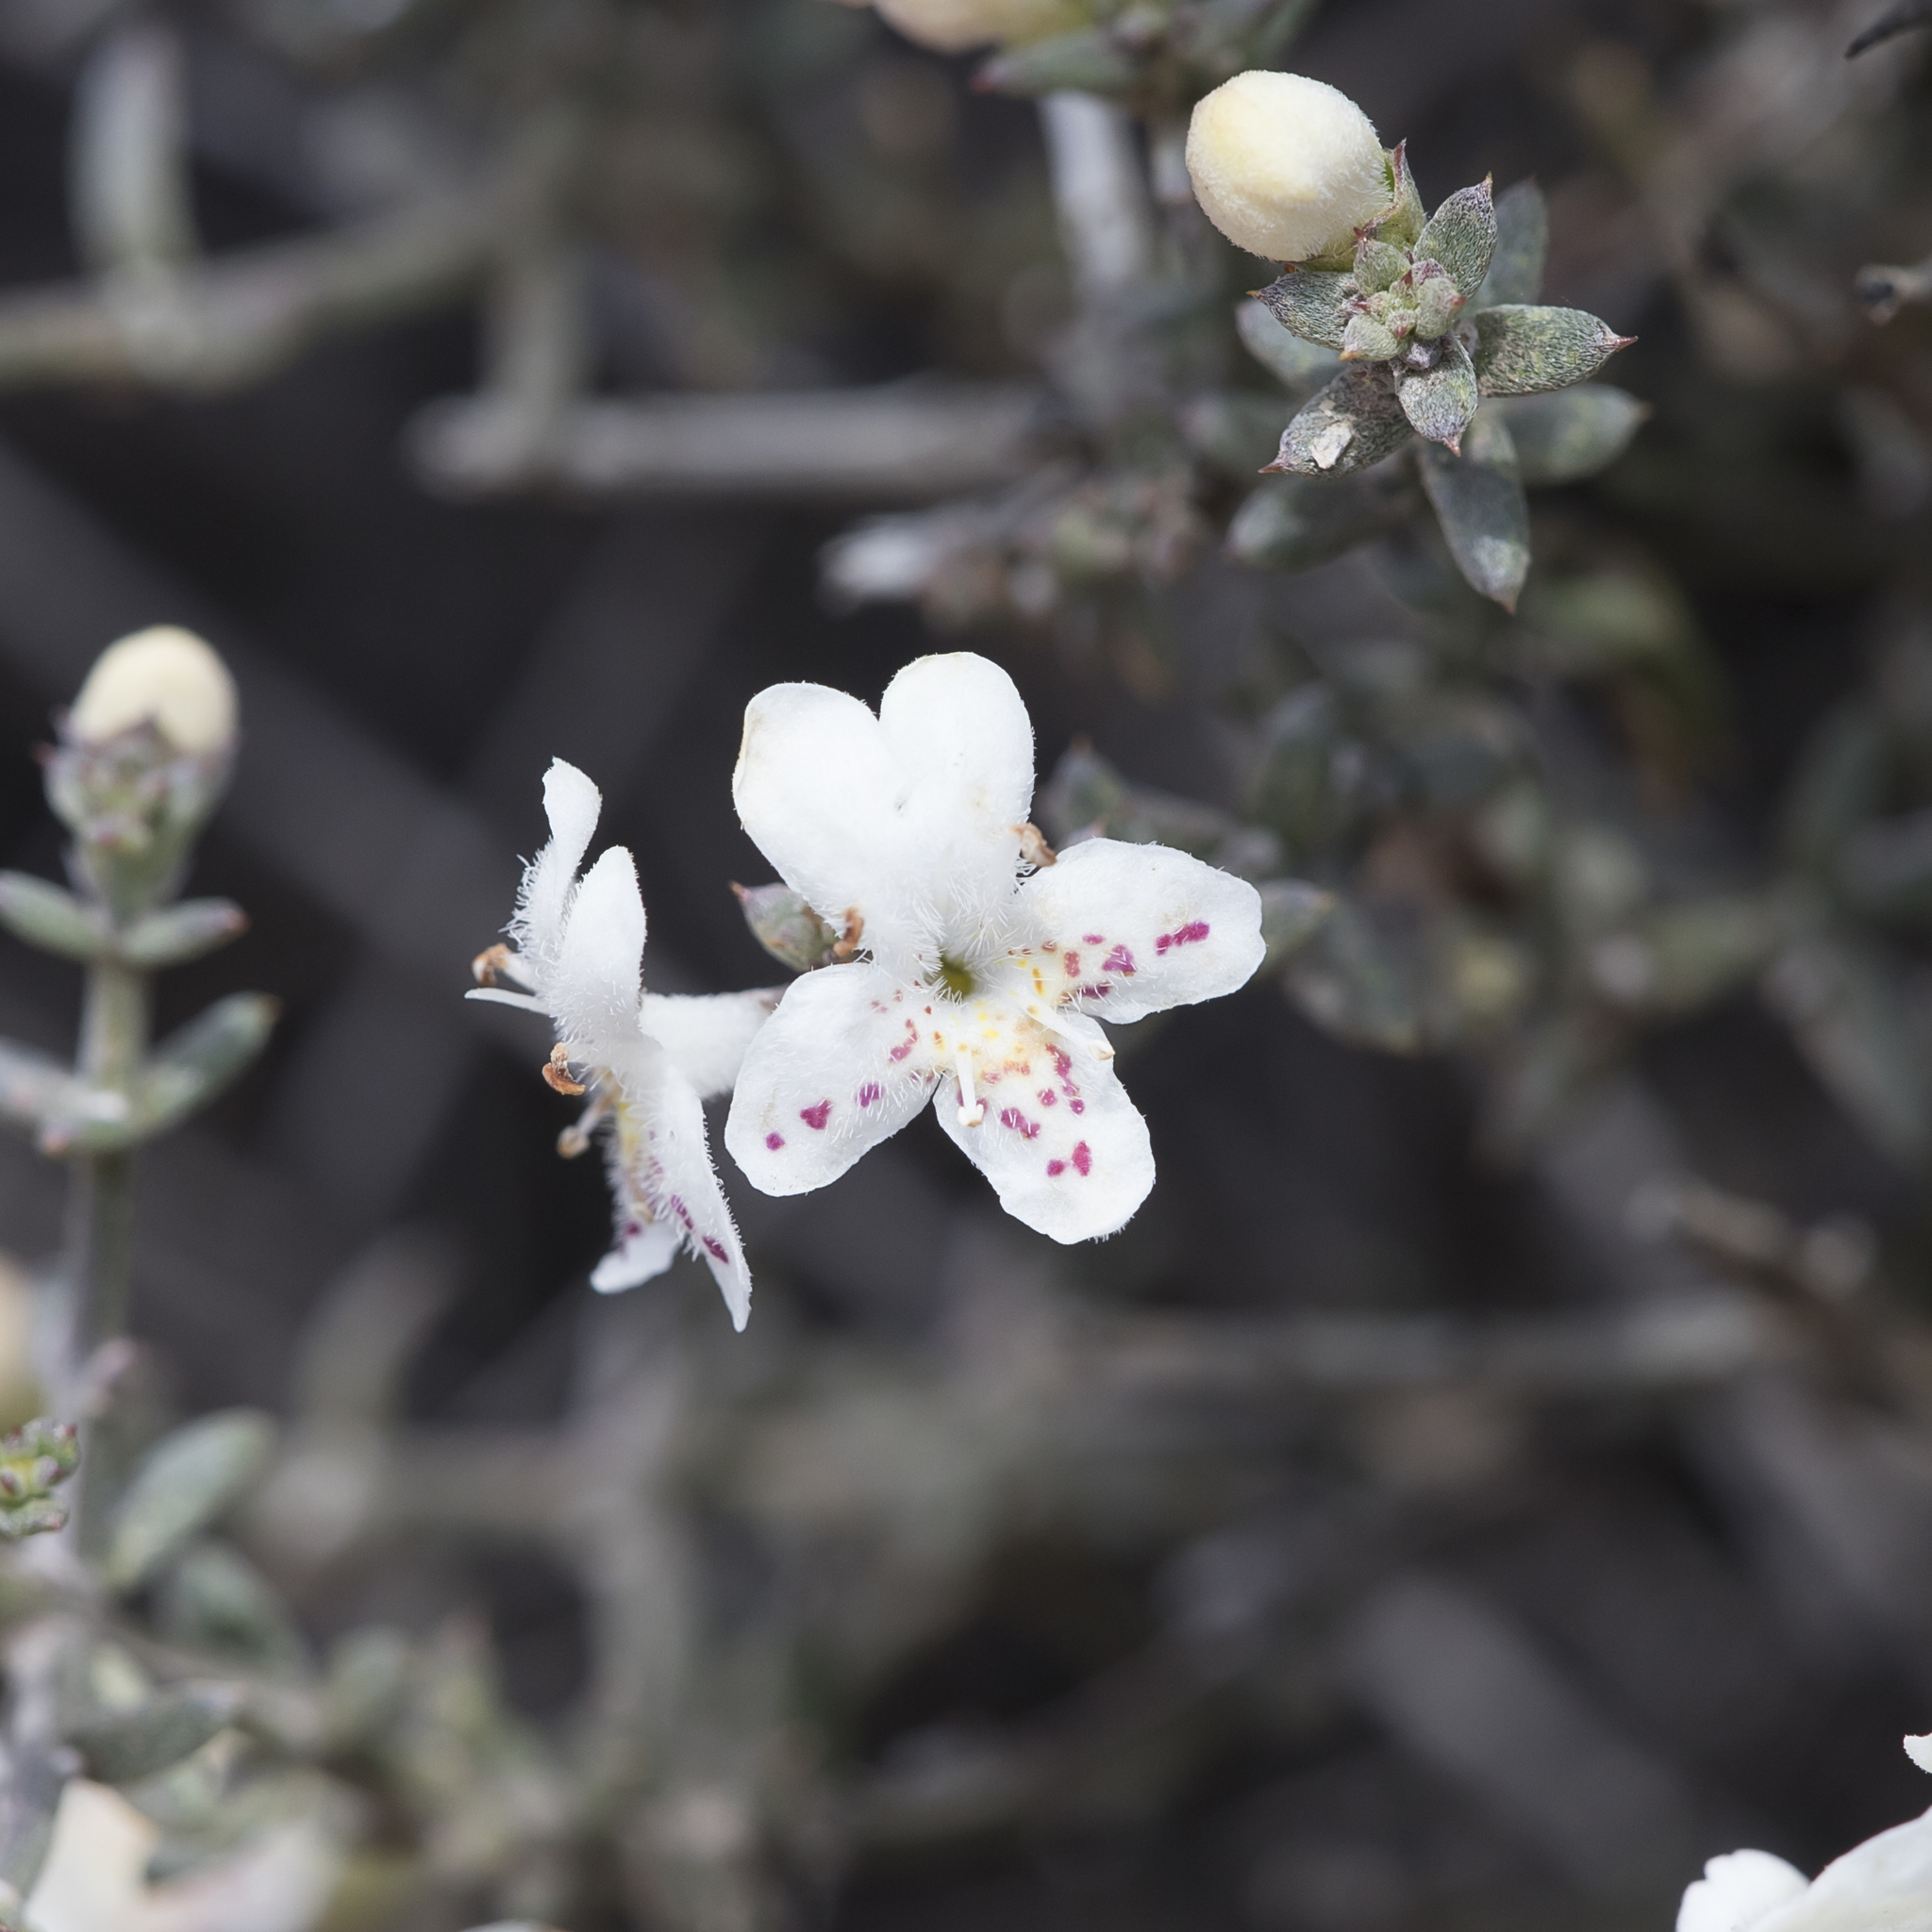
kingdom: Plantae
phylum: Tracheophyta
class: Magnoliopsida
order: Lamiales
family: Lamiaceae
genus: Westringia
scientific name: Westringia rigida
